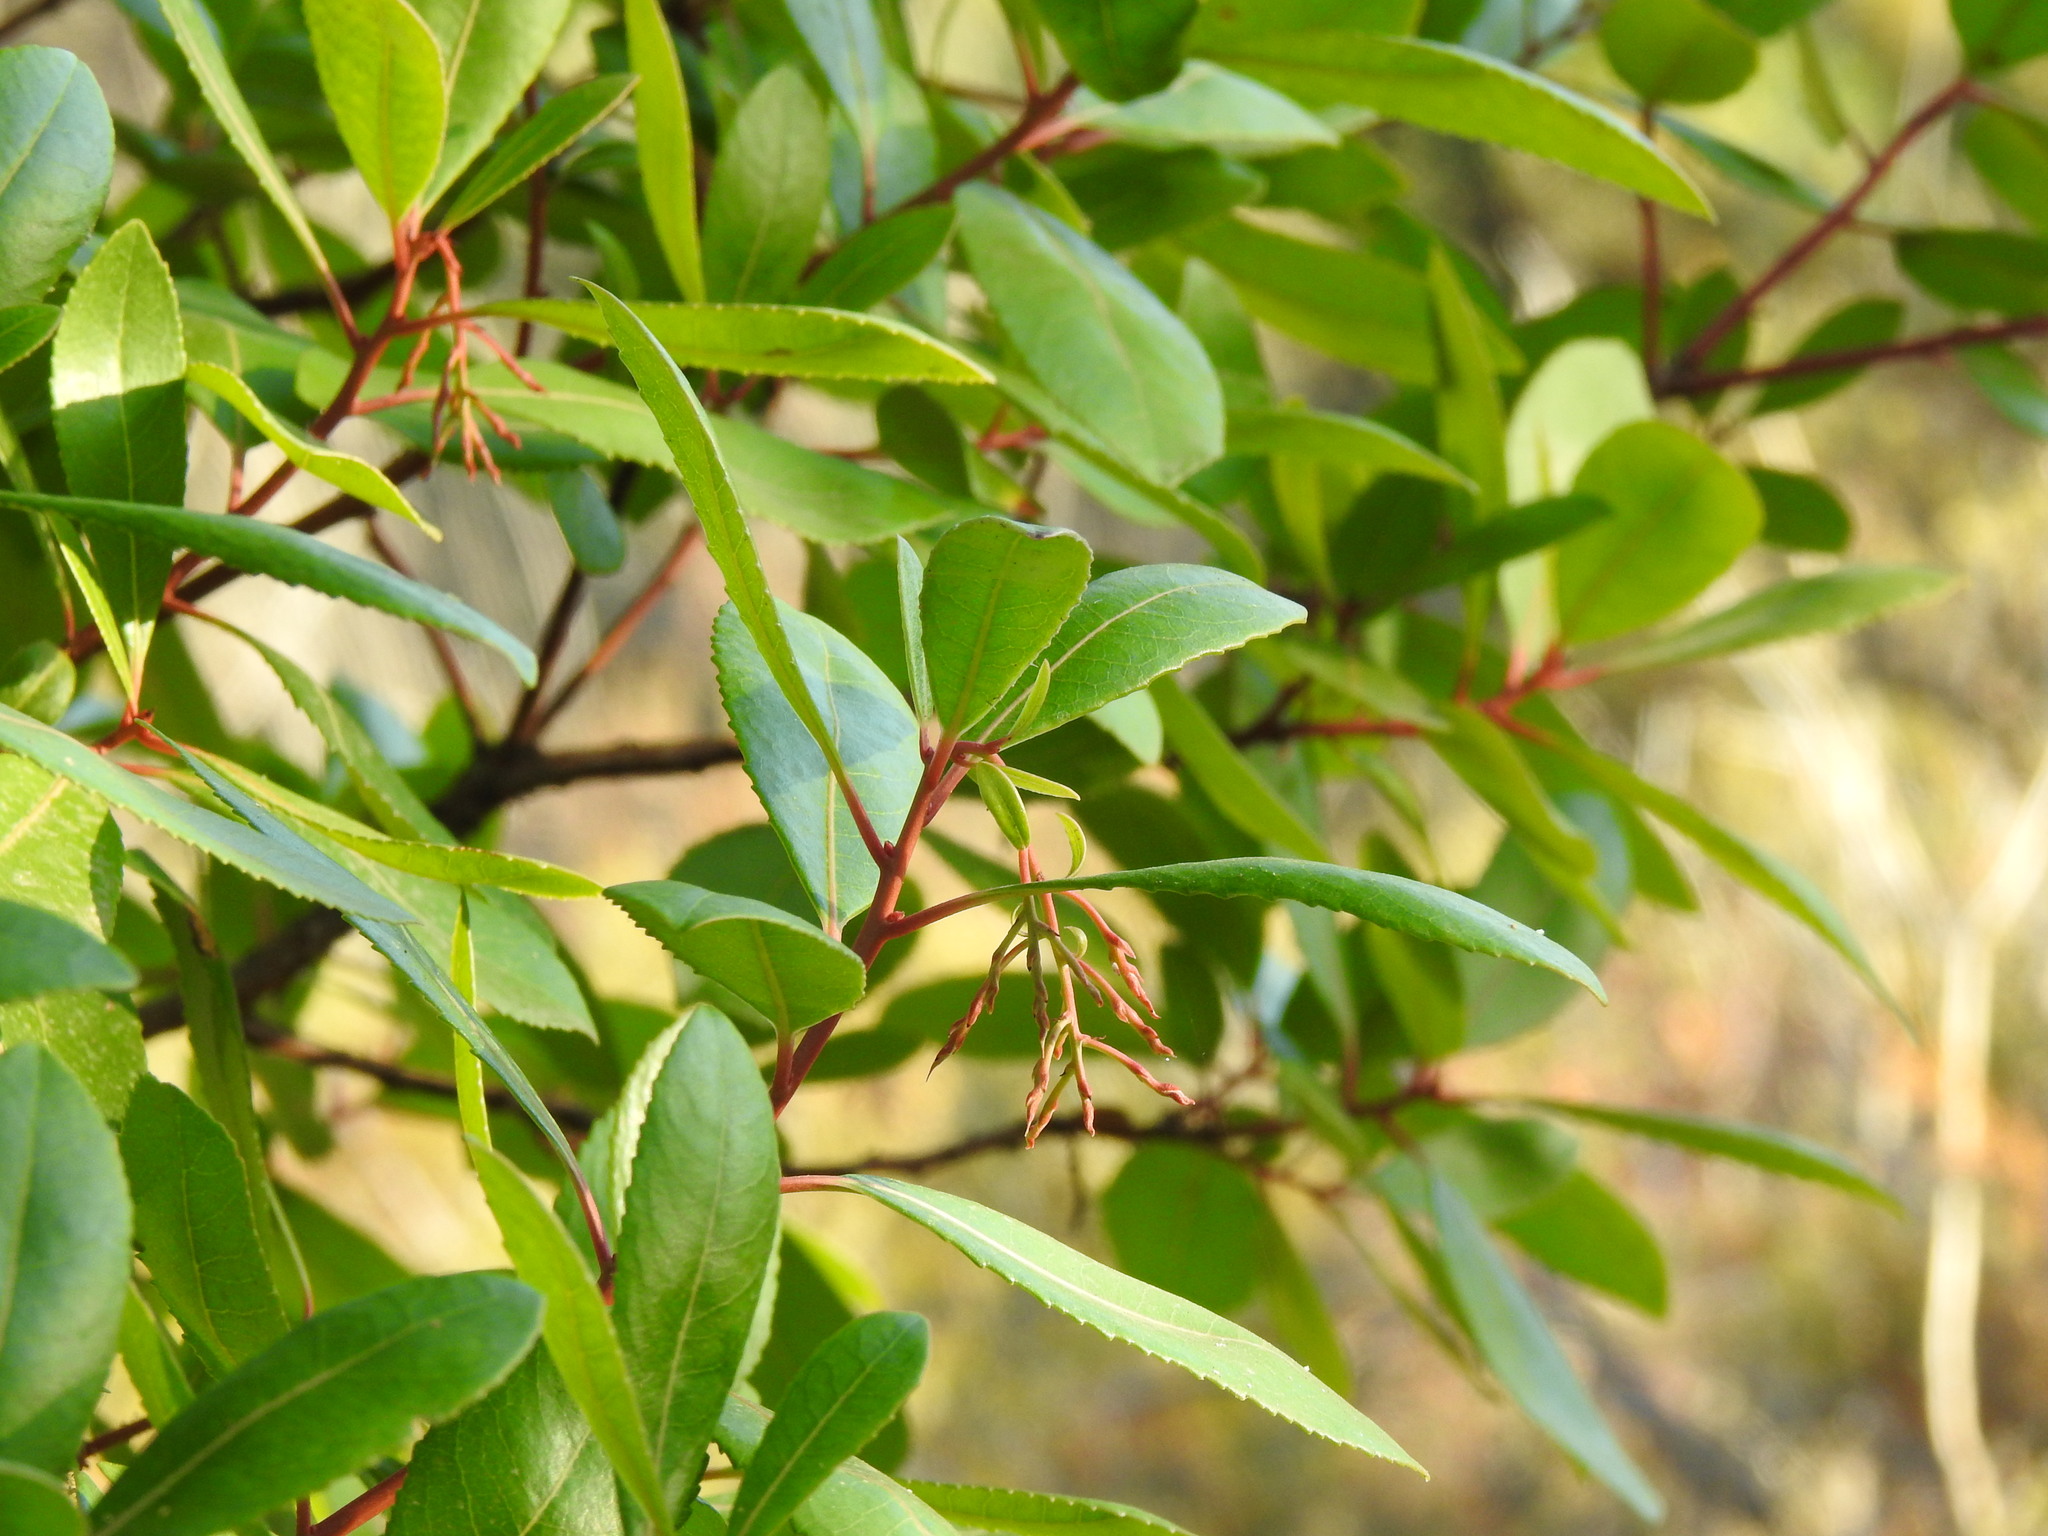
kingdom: Plantae
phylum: Tracheophyta
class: Magnoliopsida
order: Ericales
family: Ericaceae
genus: Arbutus
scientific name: Arbutus unedo
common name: Strawberry-tree
